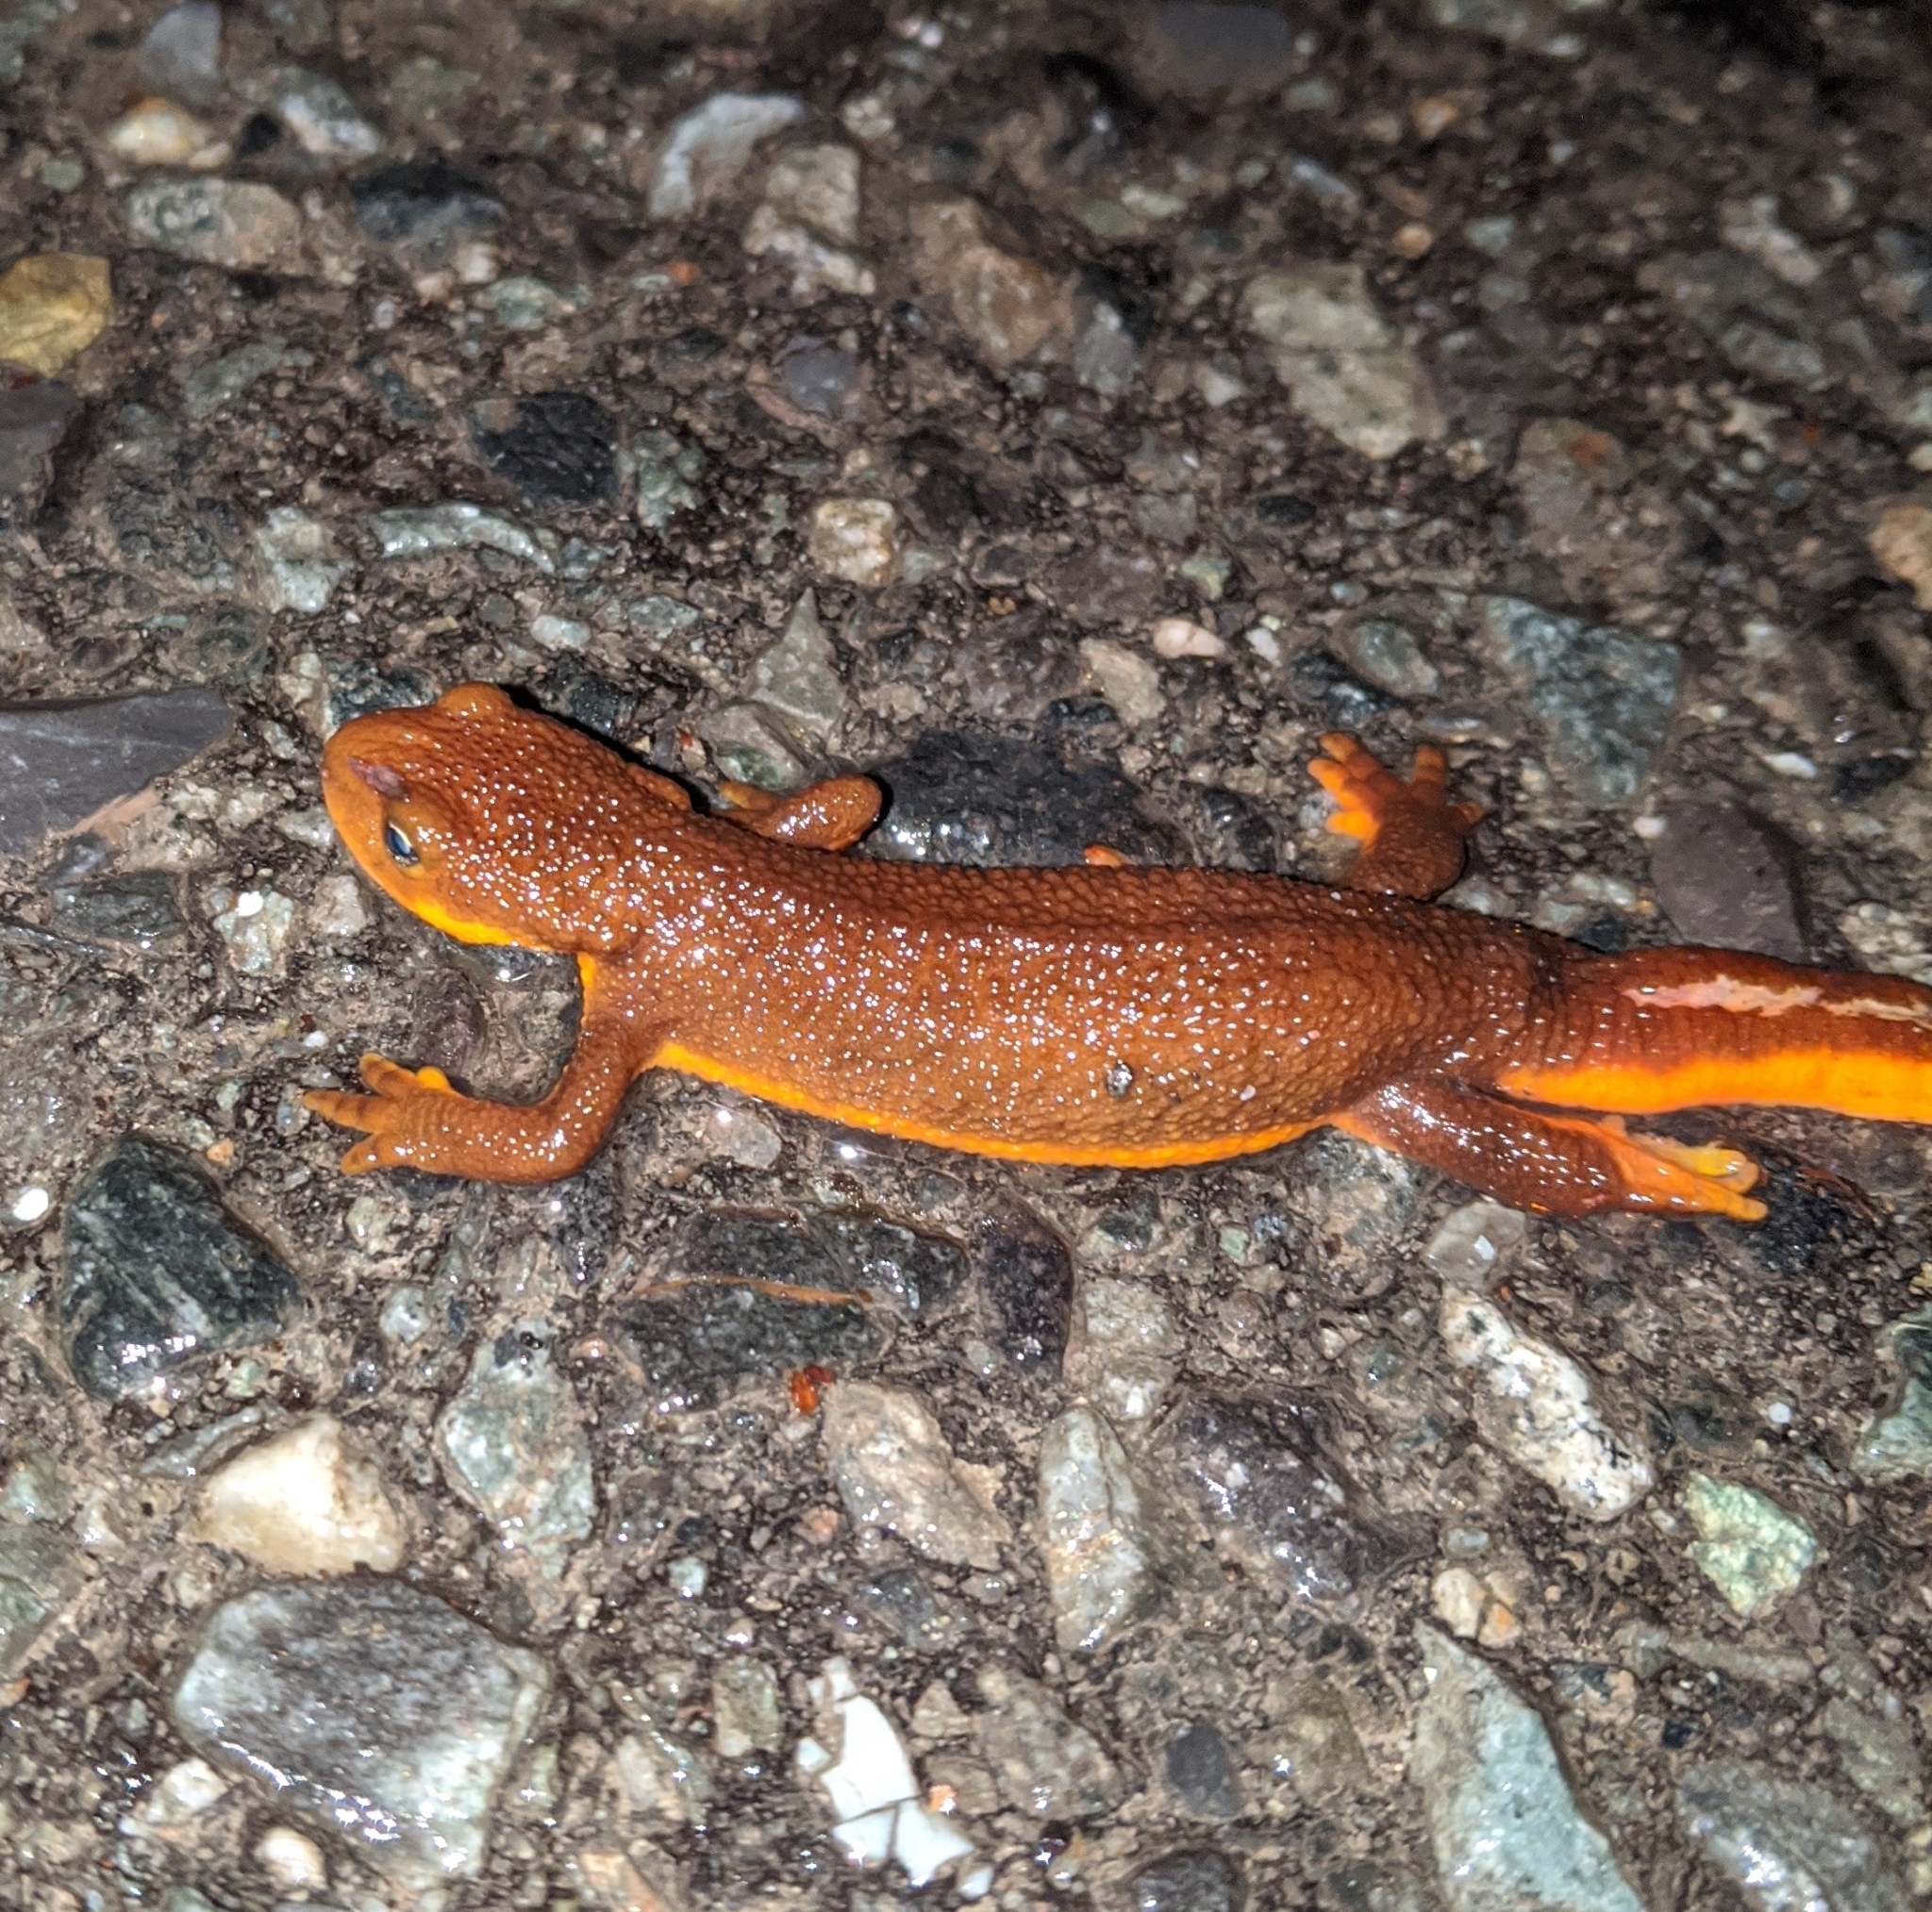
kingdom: Animalia
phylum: Chordata
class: Amphibia
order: Caudata
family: Salamandridae
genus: Taricha
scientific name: Taricha granulosa
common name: Roughskin newt
